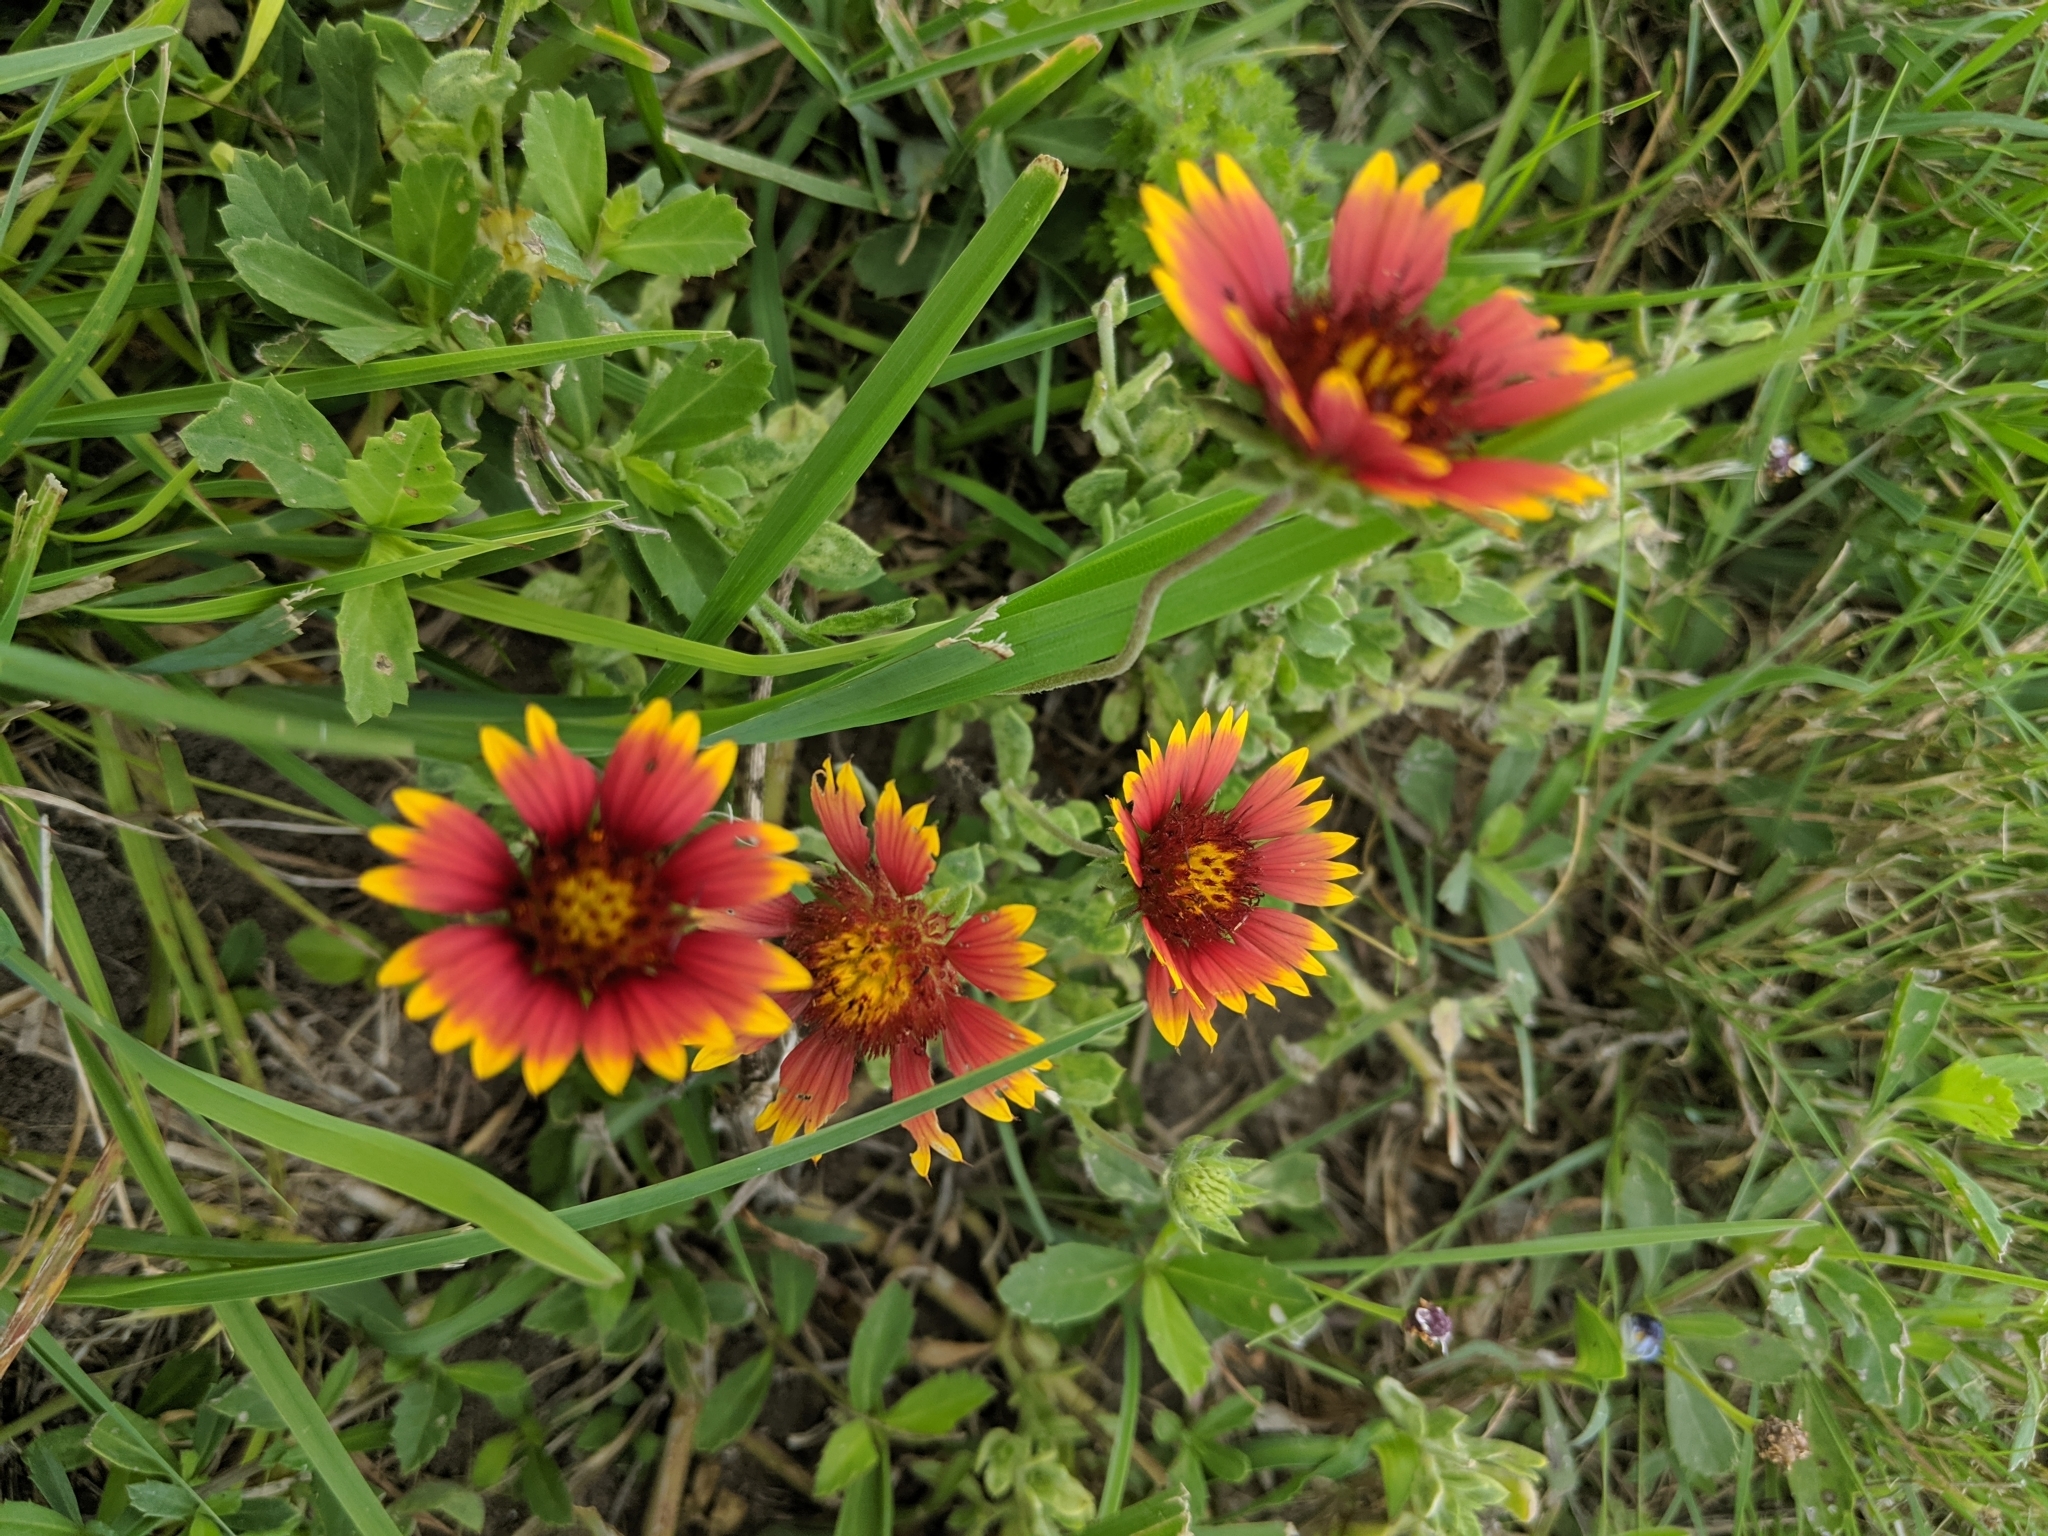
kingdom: Plantae
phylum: Tracheophyta
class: Magnoliopsida
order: Asterales
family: Asteraceae
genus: Gaillardia
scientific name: Gaillardia pulchella
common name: Firewheel
